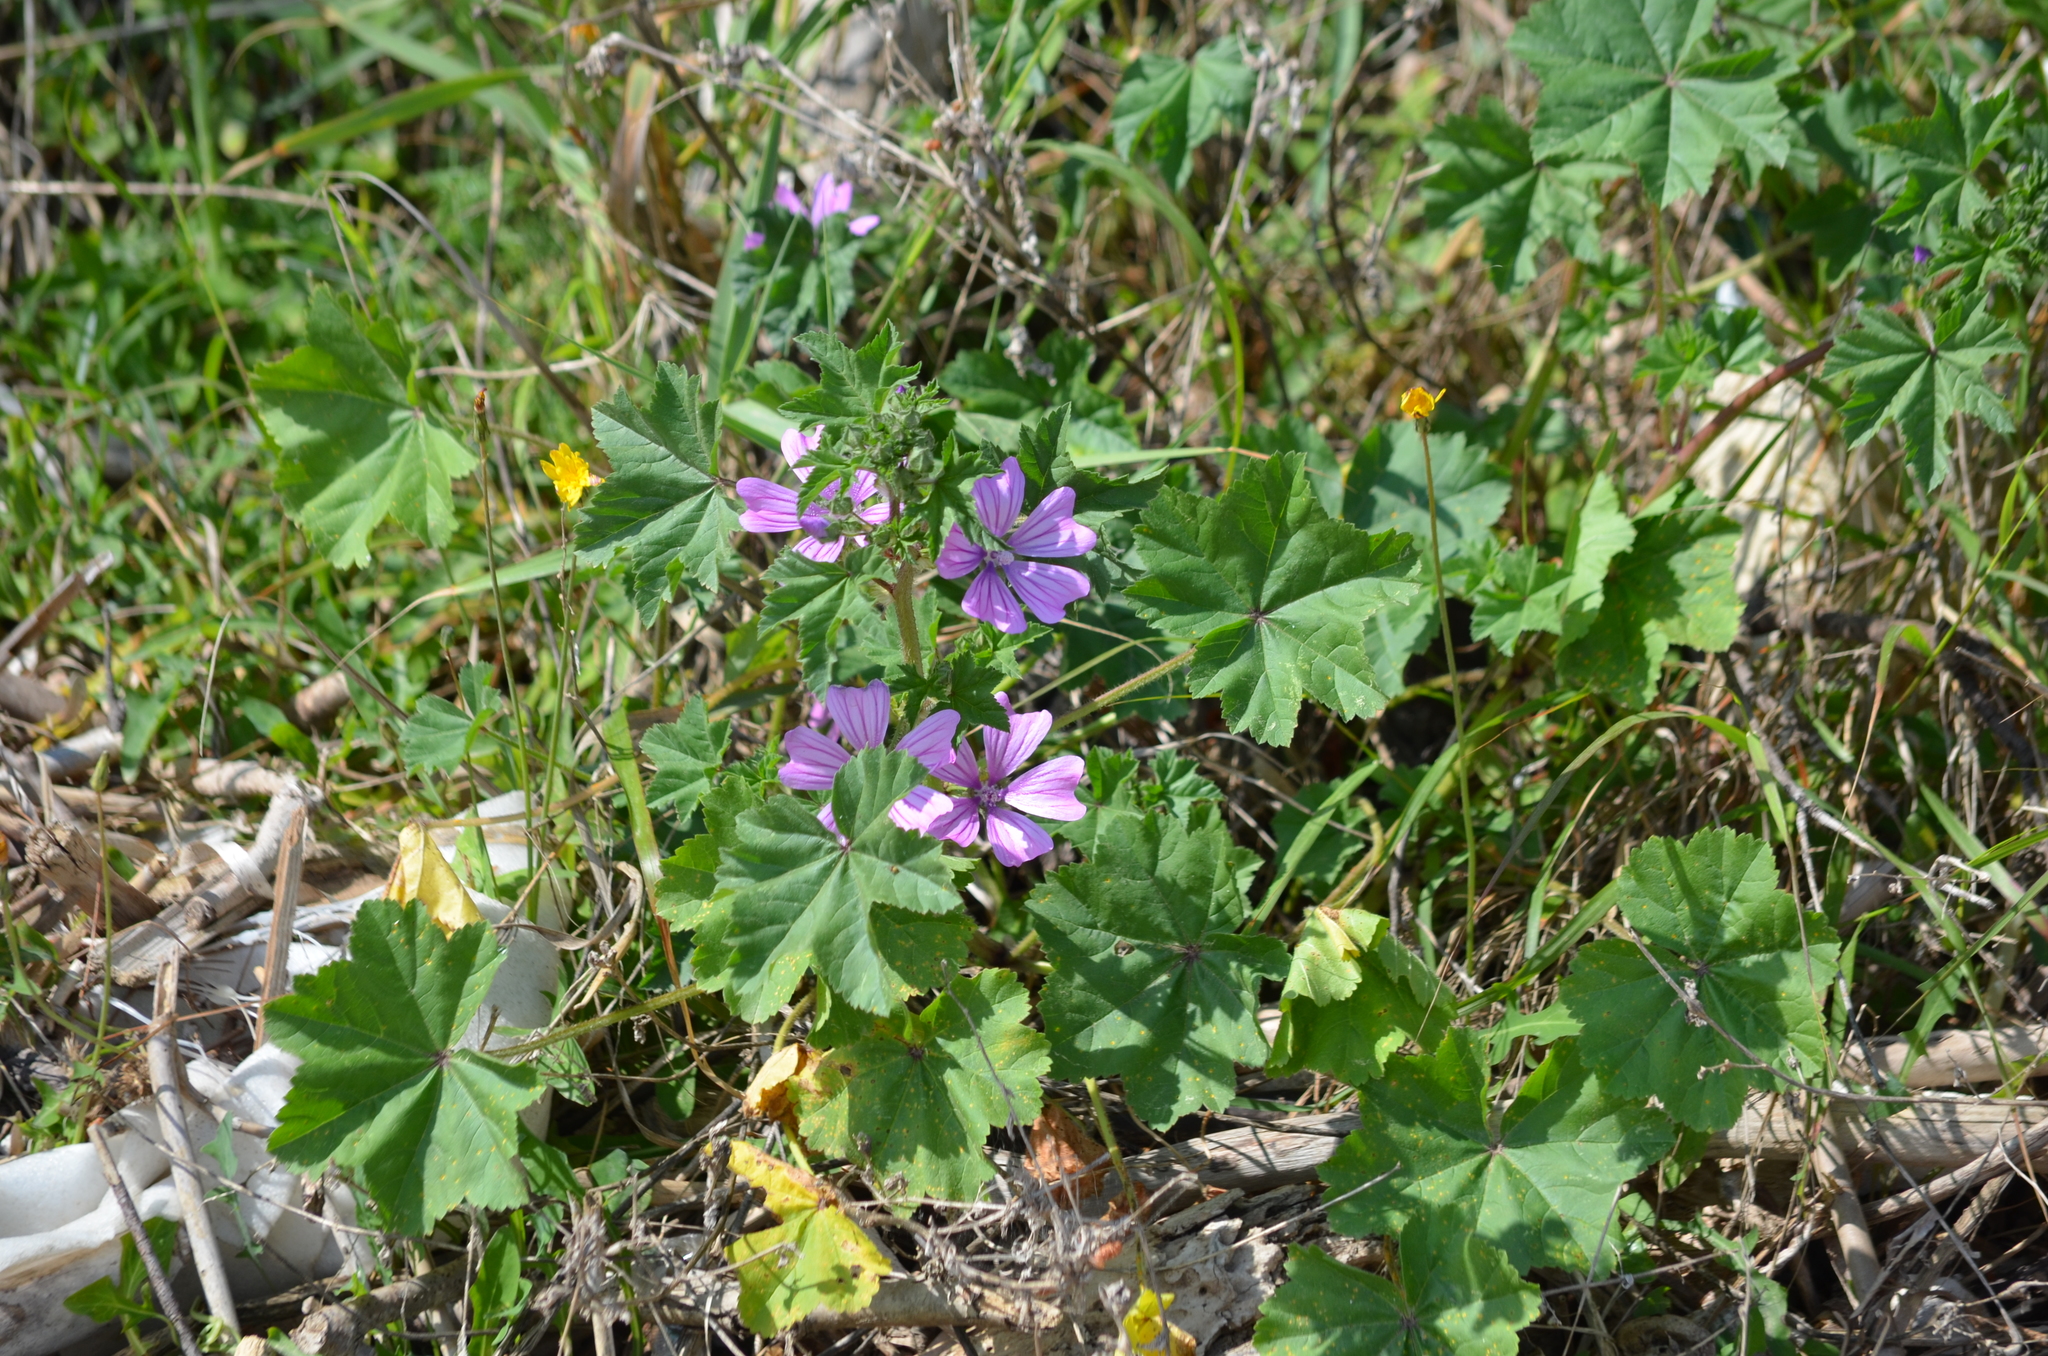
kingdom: Plantae
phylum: Tracheophyta
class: Magnoliopsida
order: Malvales
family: Malvaceae
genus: Malva
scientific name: Malva sylvestris
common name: Common mallow
